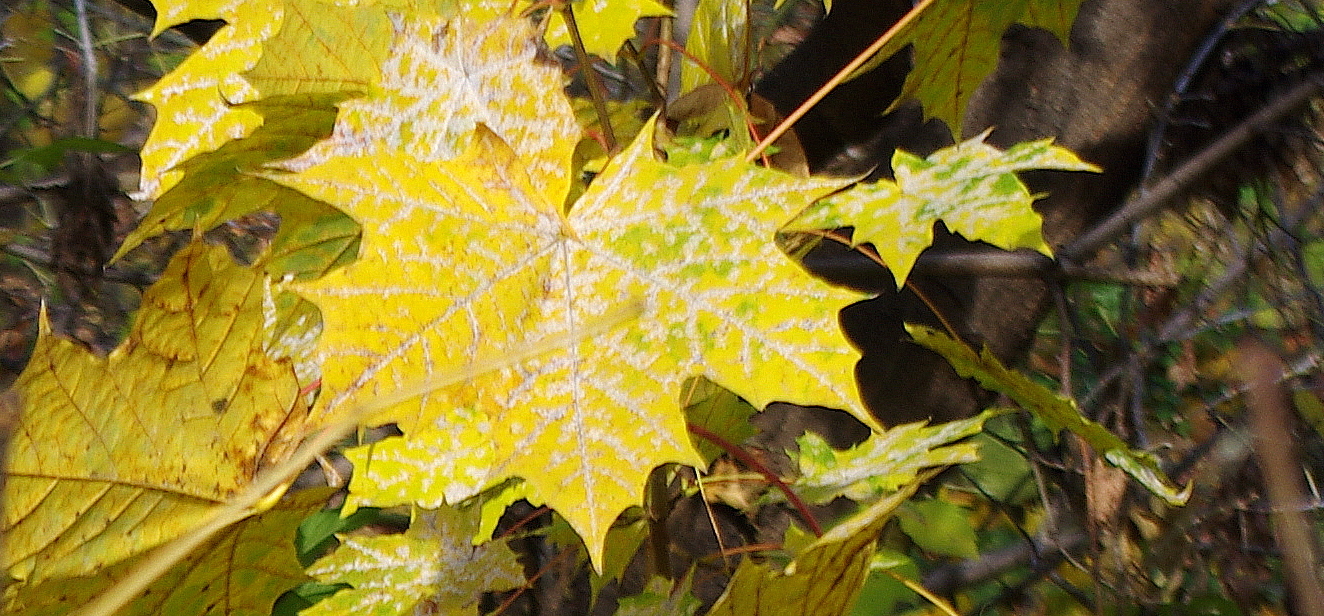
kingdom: Fungi
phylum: Ascomycota
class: Leotiomycetes
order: Helotiales
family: Erysiphaceae
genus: Sawadaea
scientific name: Sawadaea tulasnei
